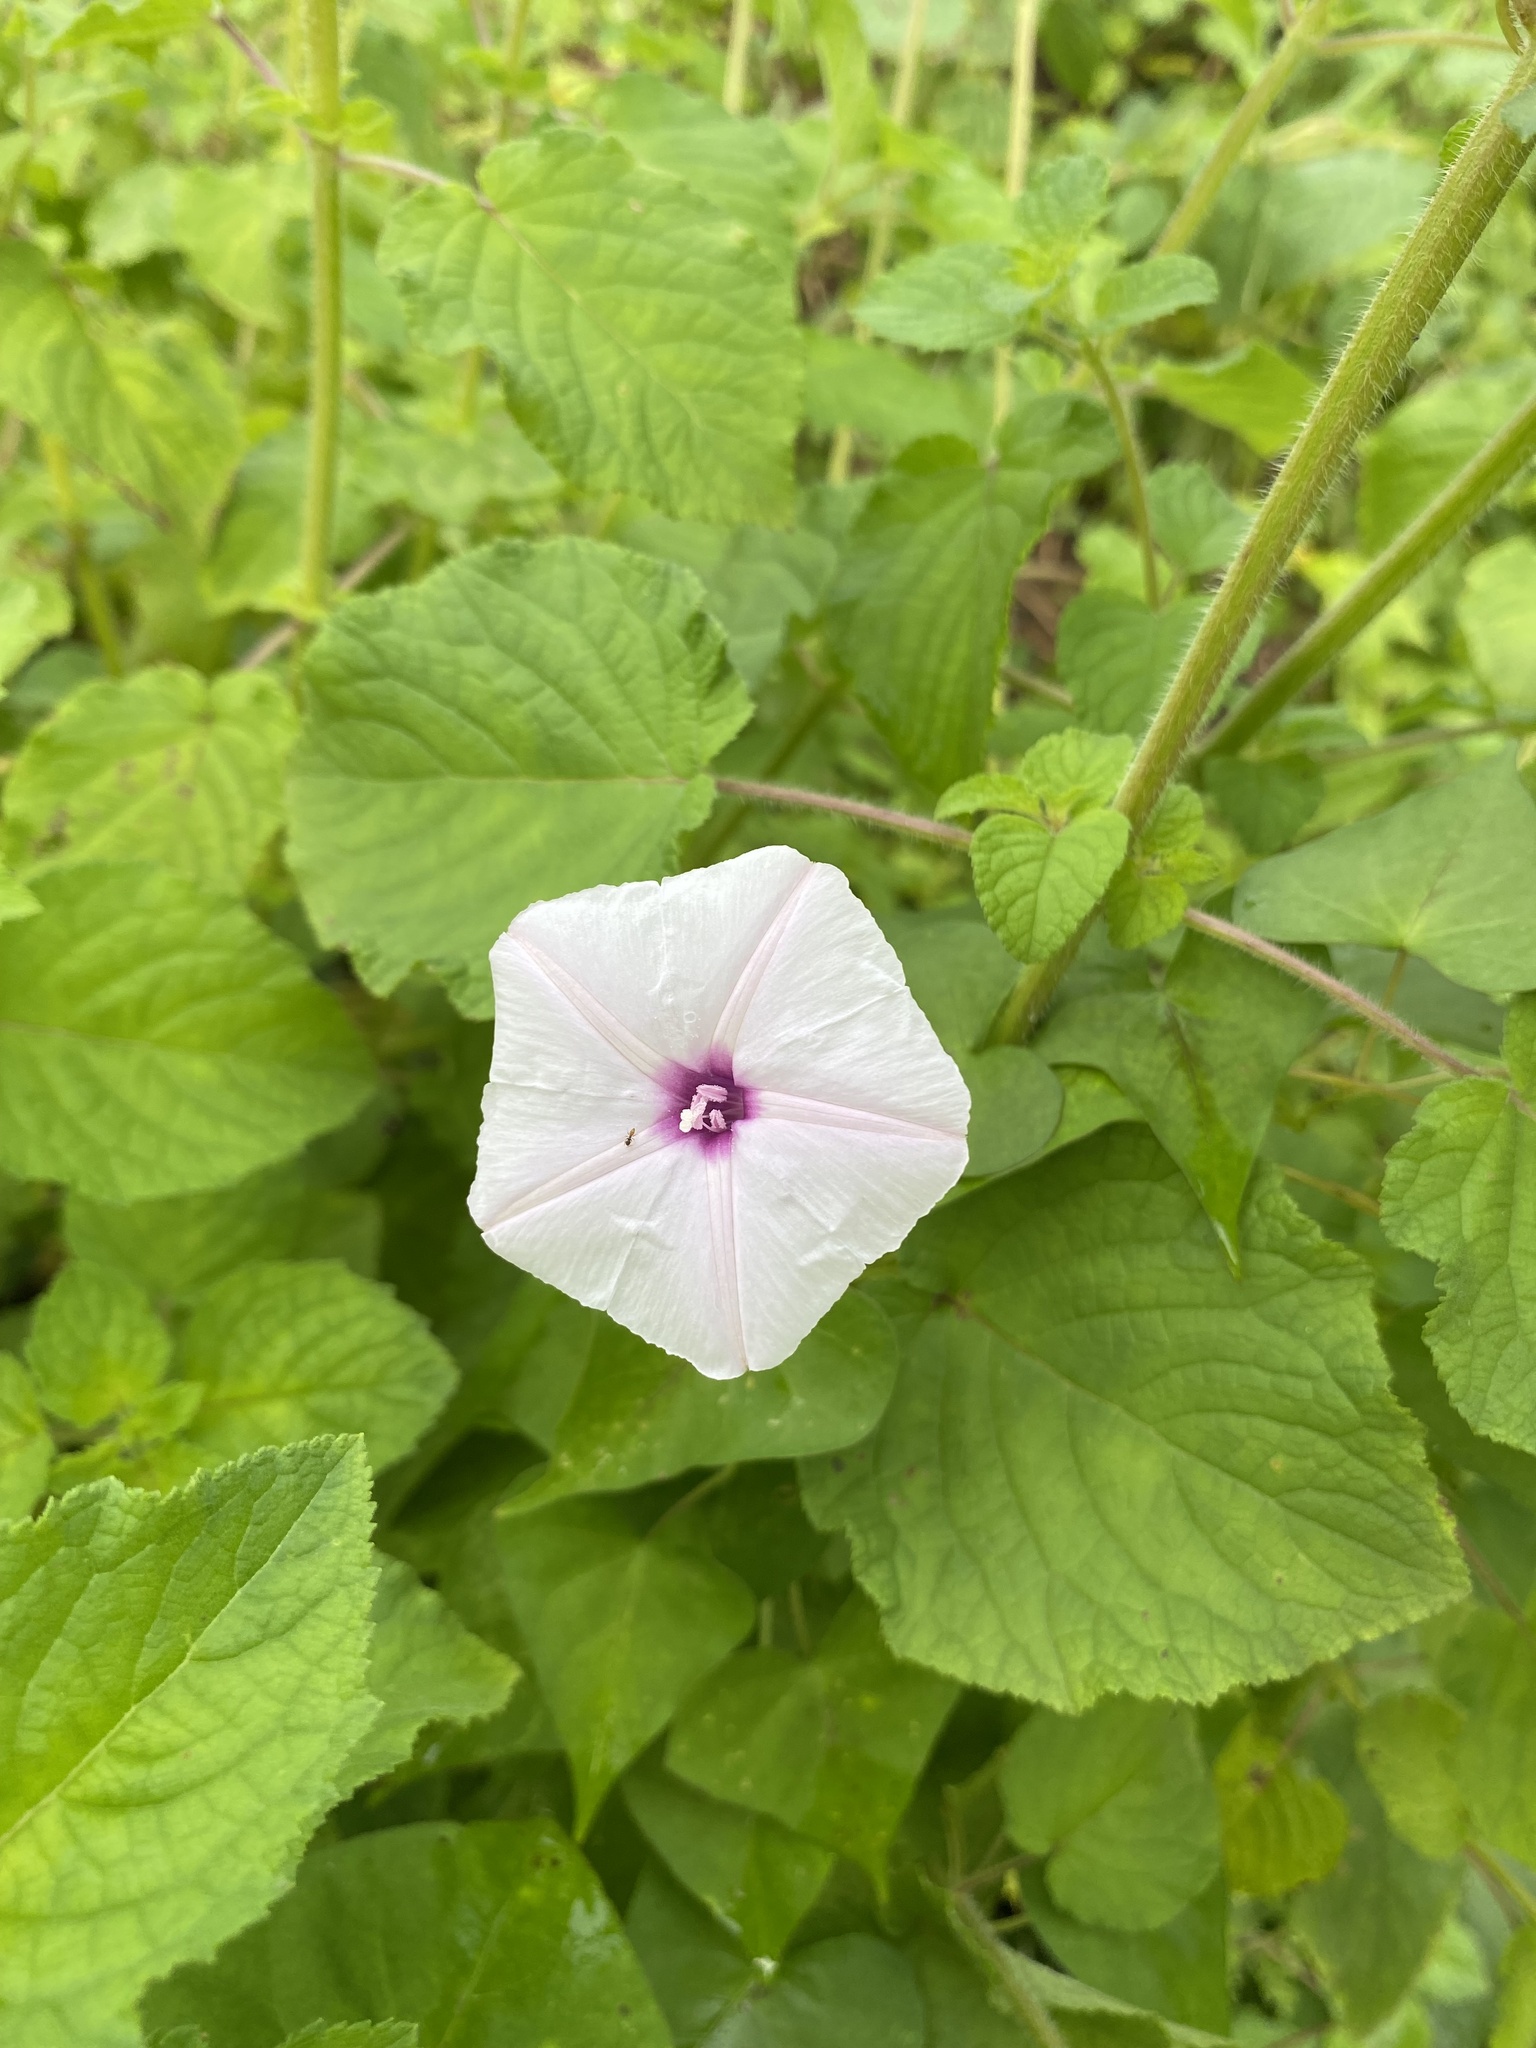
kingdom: Plantae
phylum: Tracheophyta
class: Magnoliopsida
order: Solanales
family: Convolvulaceae
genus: Ipomoea
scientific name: Ipomoea sagittifolia
